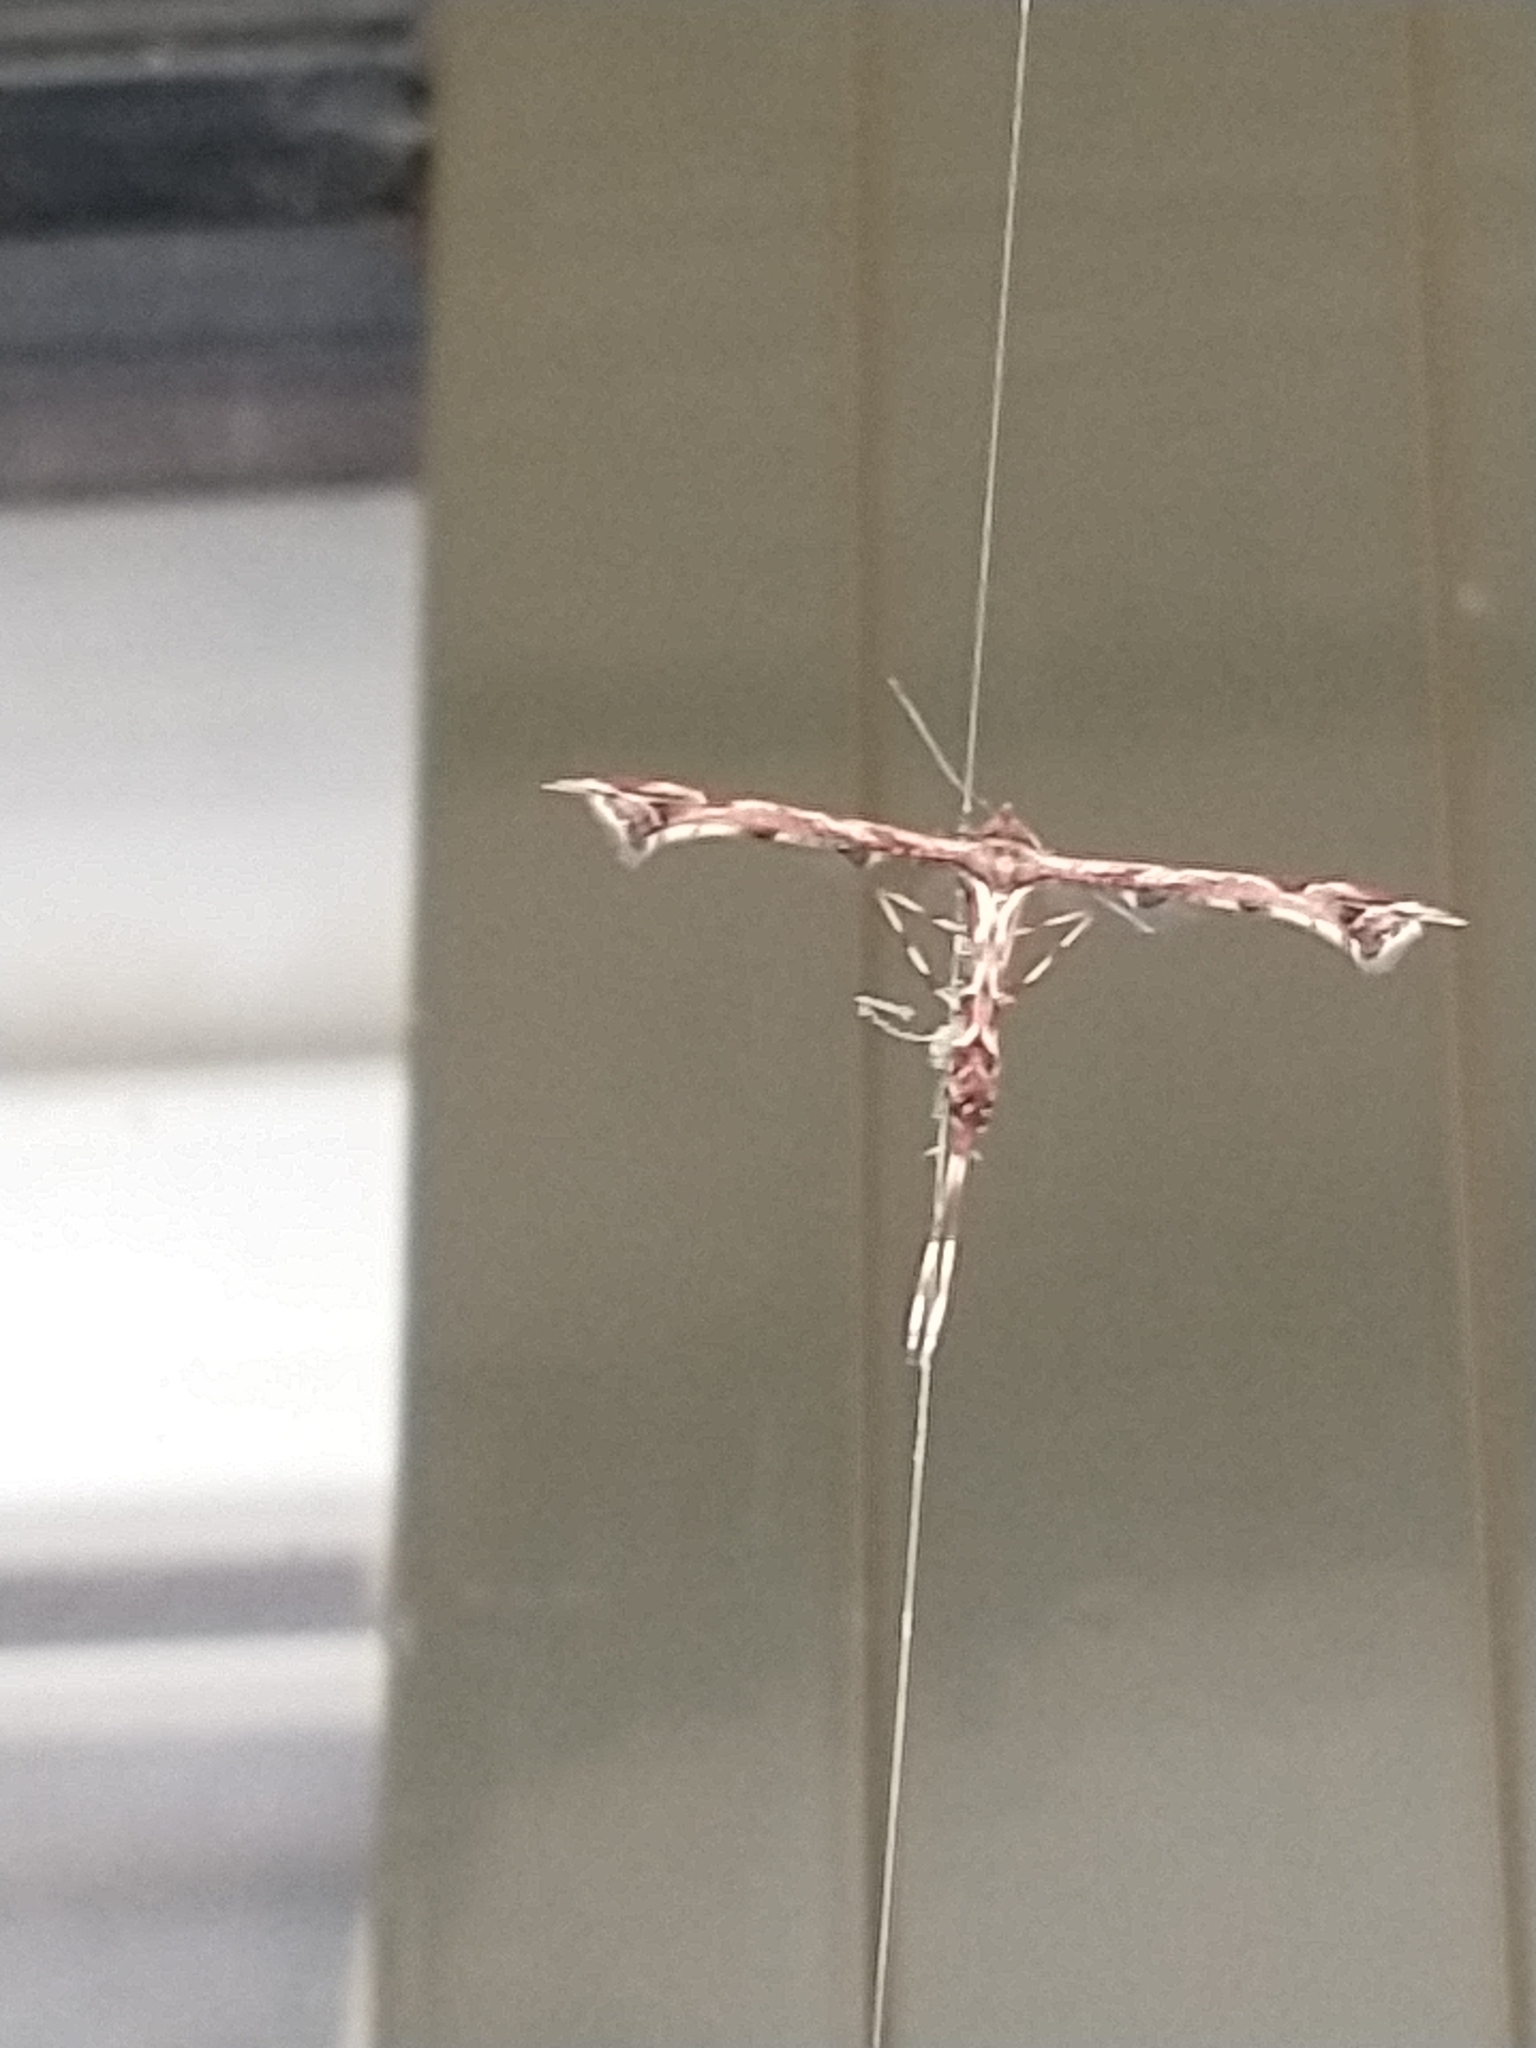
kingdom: Animalia
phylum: Arthropoda
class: Insecta
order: Lepidoptera
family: Pterophoridae
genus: Amblyptilia
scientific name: Amblyptilia acanthadactyla
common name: Beautiful plume
